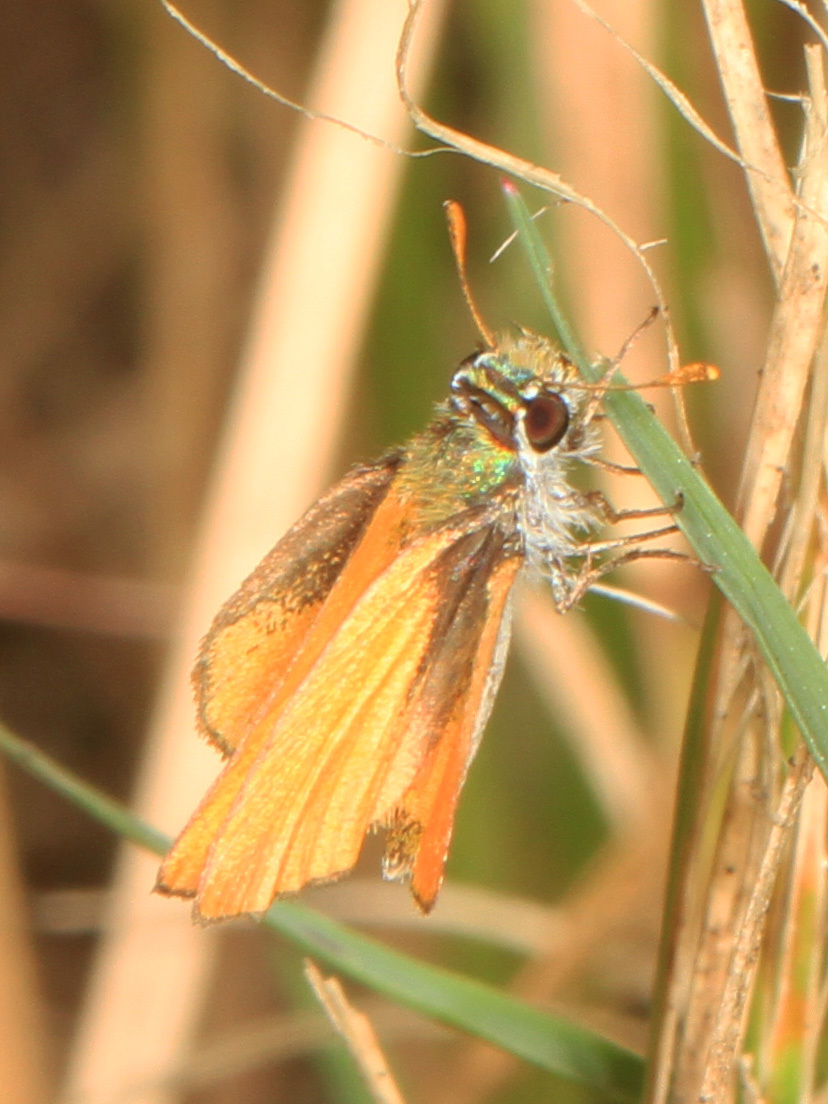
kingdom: Animalia
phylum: Arthropoda
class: Insecta
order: Lepidoptera
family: Hesperiidae
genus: Copaeodes
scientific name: Copaeodes minima
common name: Southern skipperling
